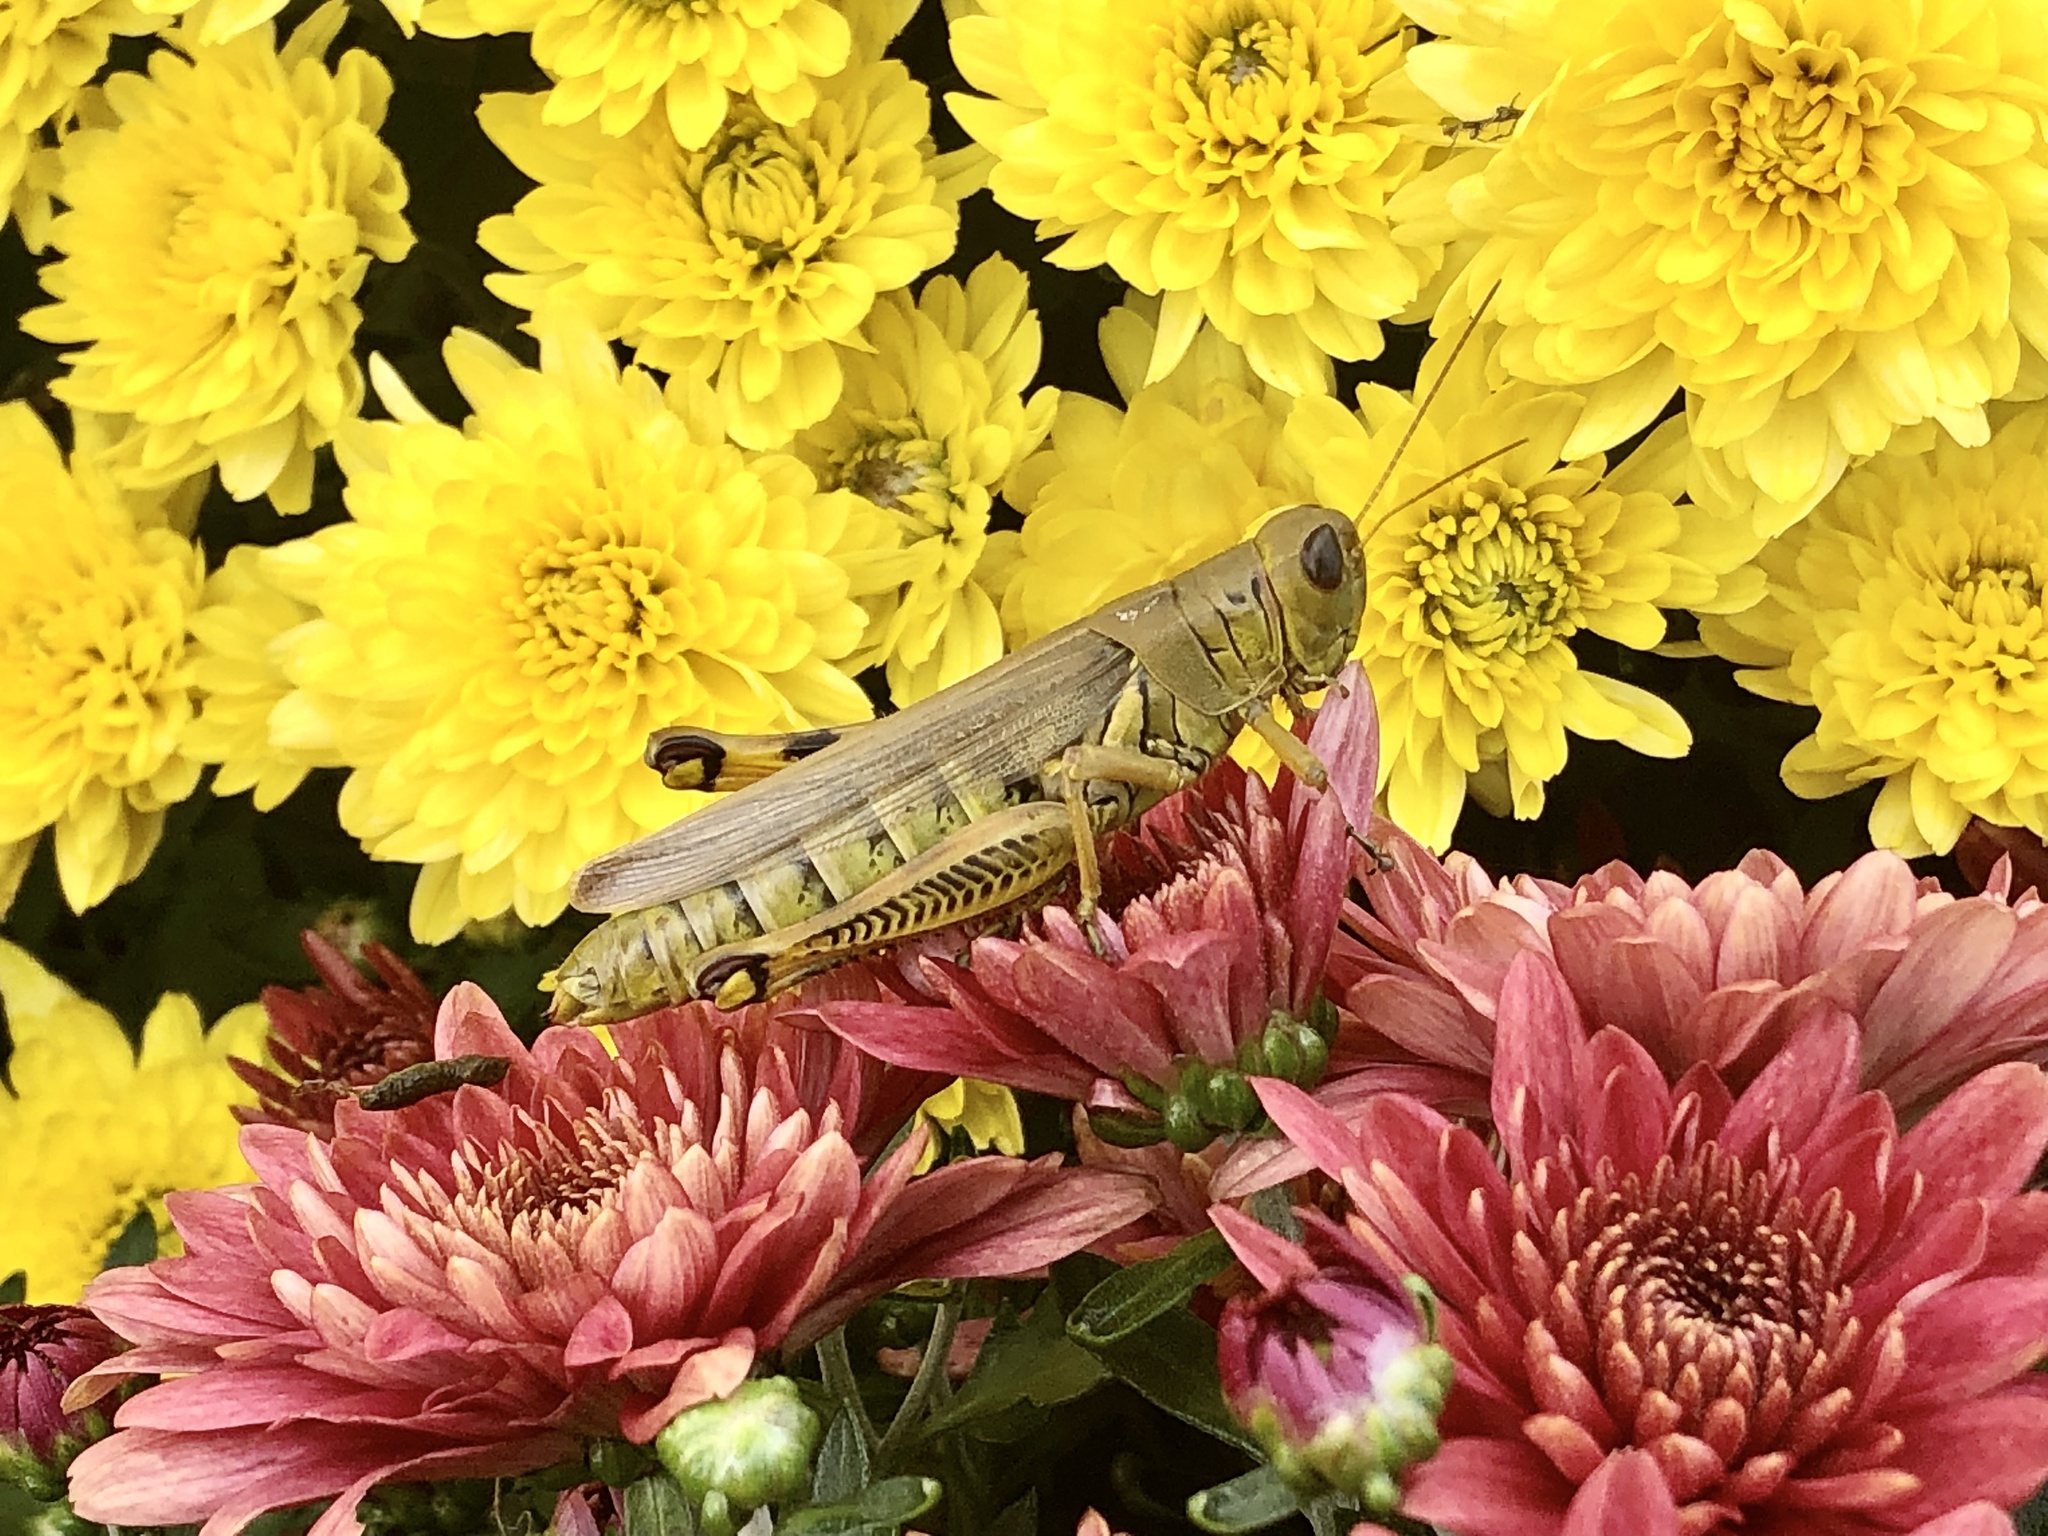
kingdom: Animalia
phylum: Arthropoda
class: Insecta
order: Orthoptera
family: Acrididae
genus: Melanoplus
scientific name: Melanoplus differentialis
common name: Differential grasshopper
